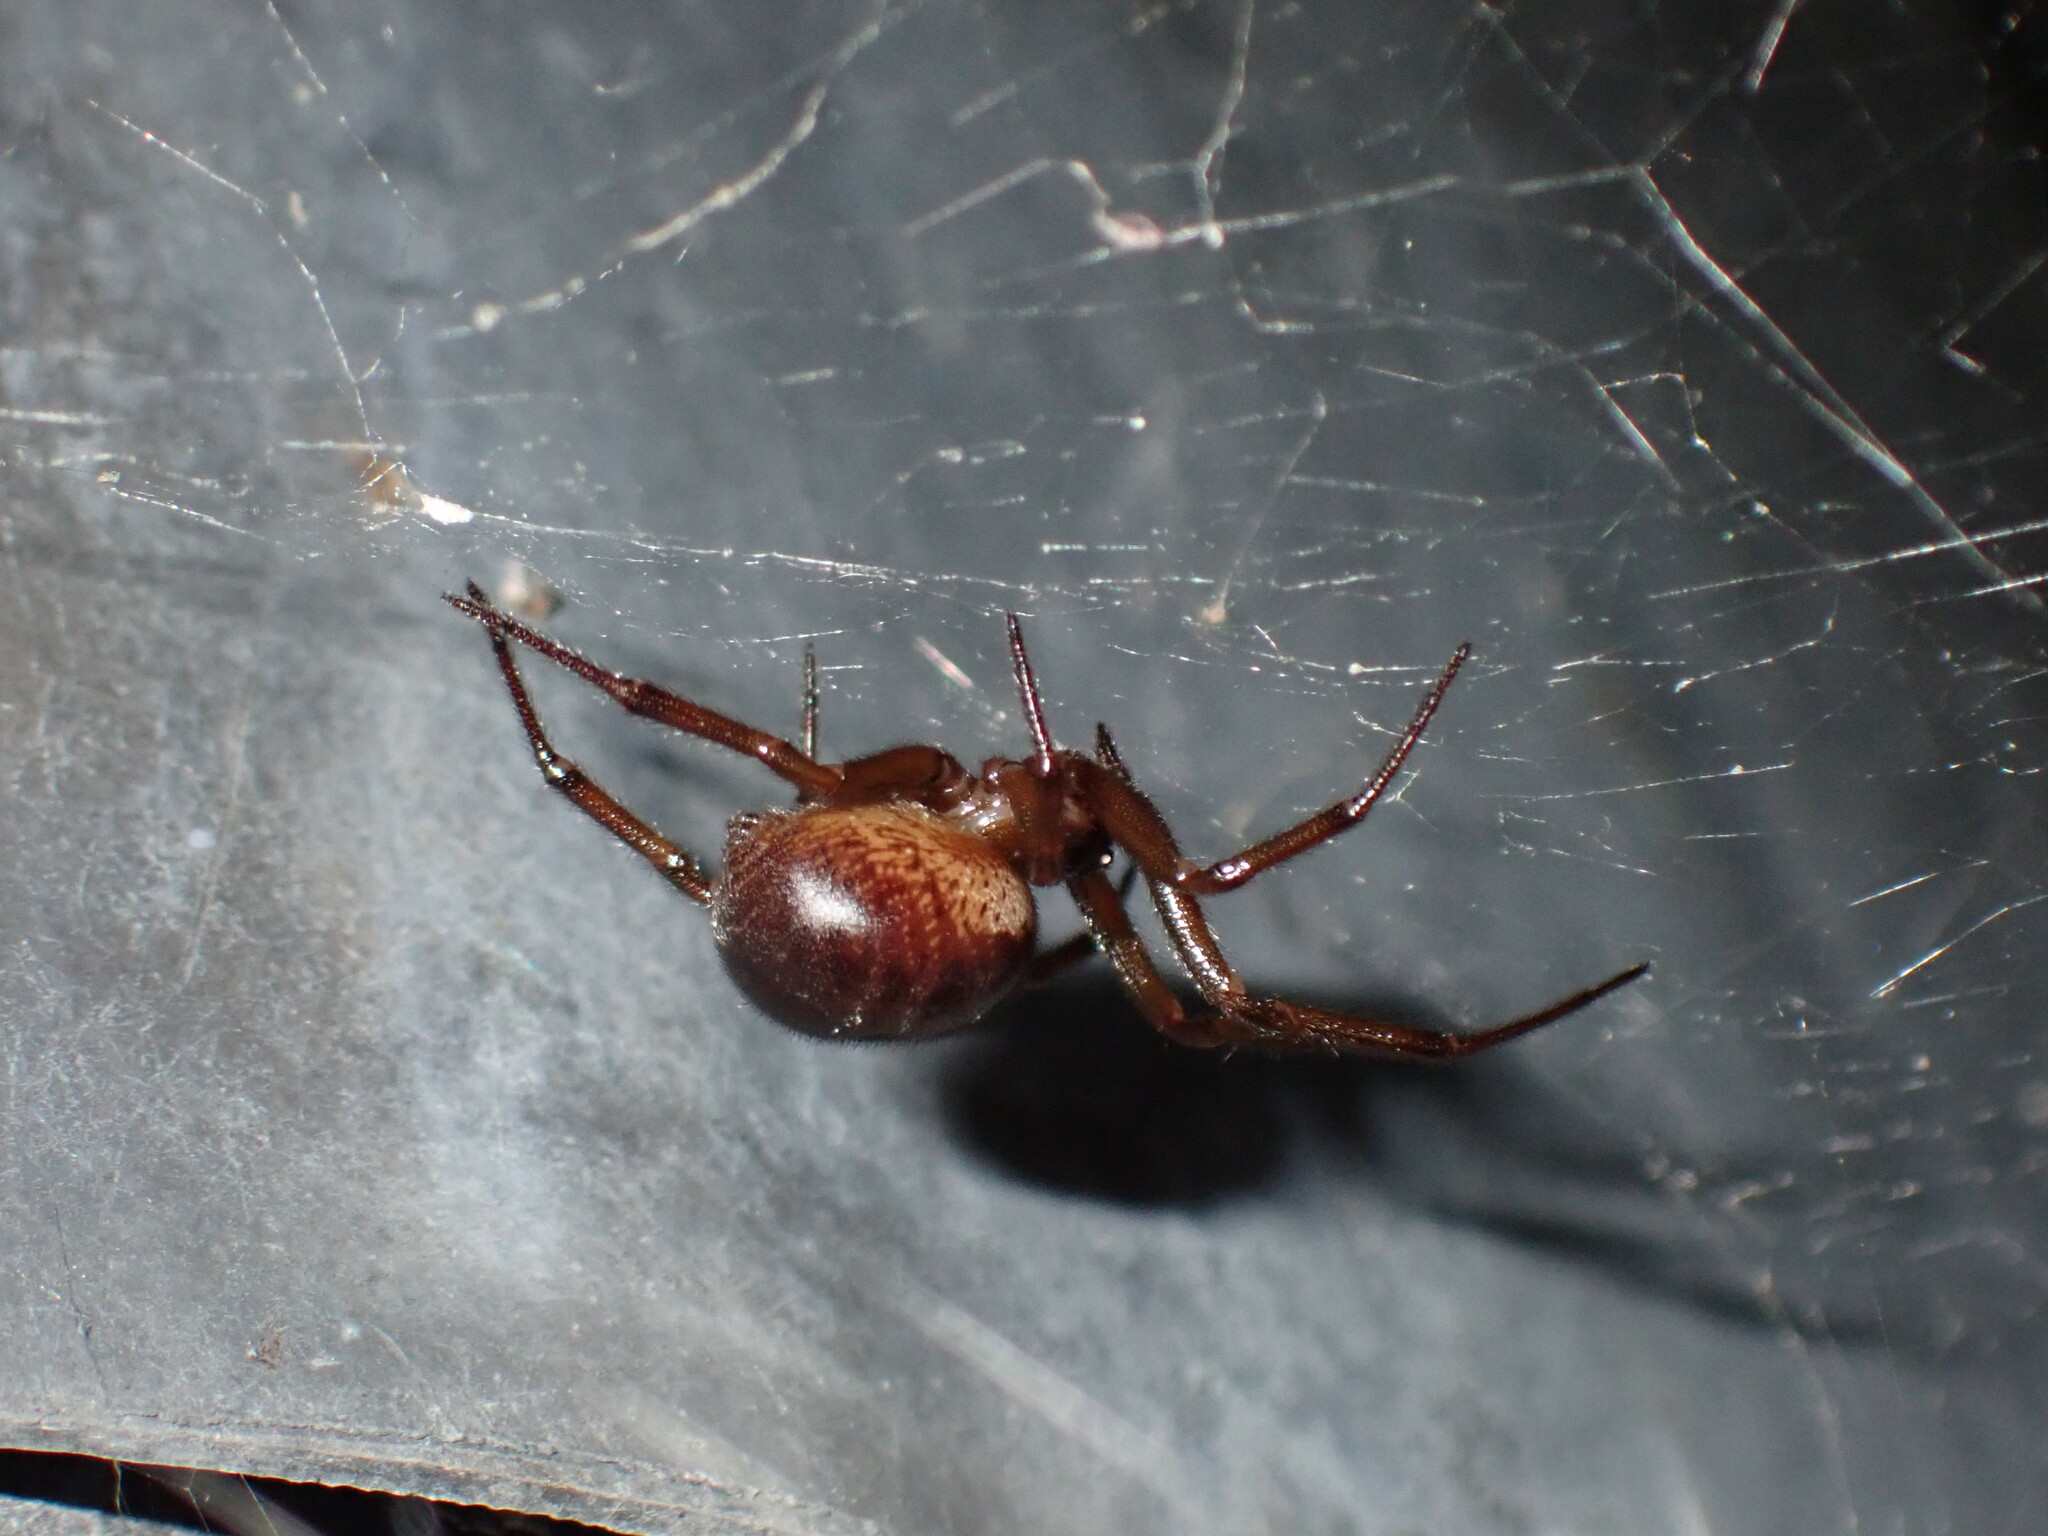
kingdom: Animalia
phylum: Arthropoda
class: Arachnida
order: Araneae
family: Theridiidae
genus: Steatoda
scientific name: Steatoda nobilis
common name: Cobweb weaver
